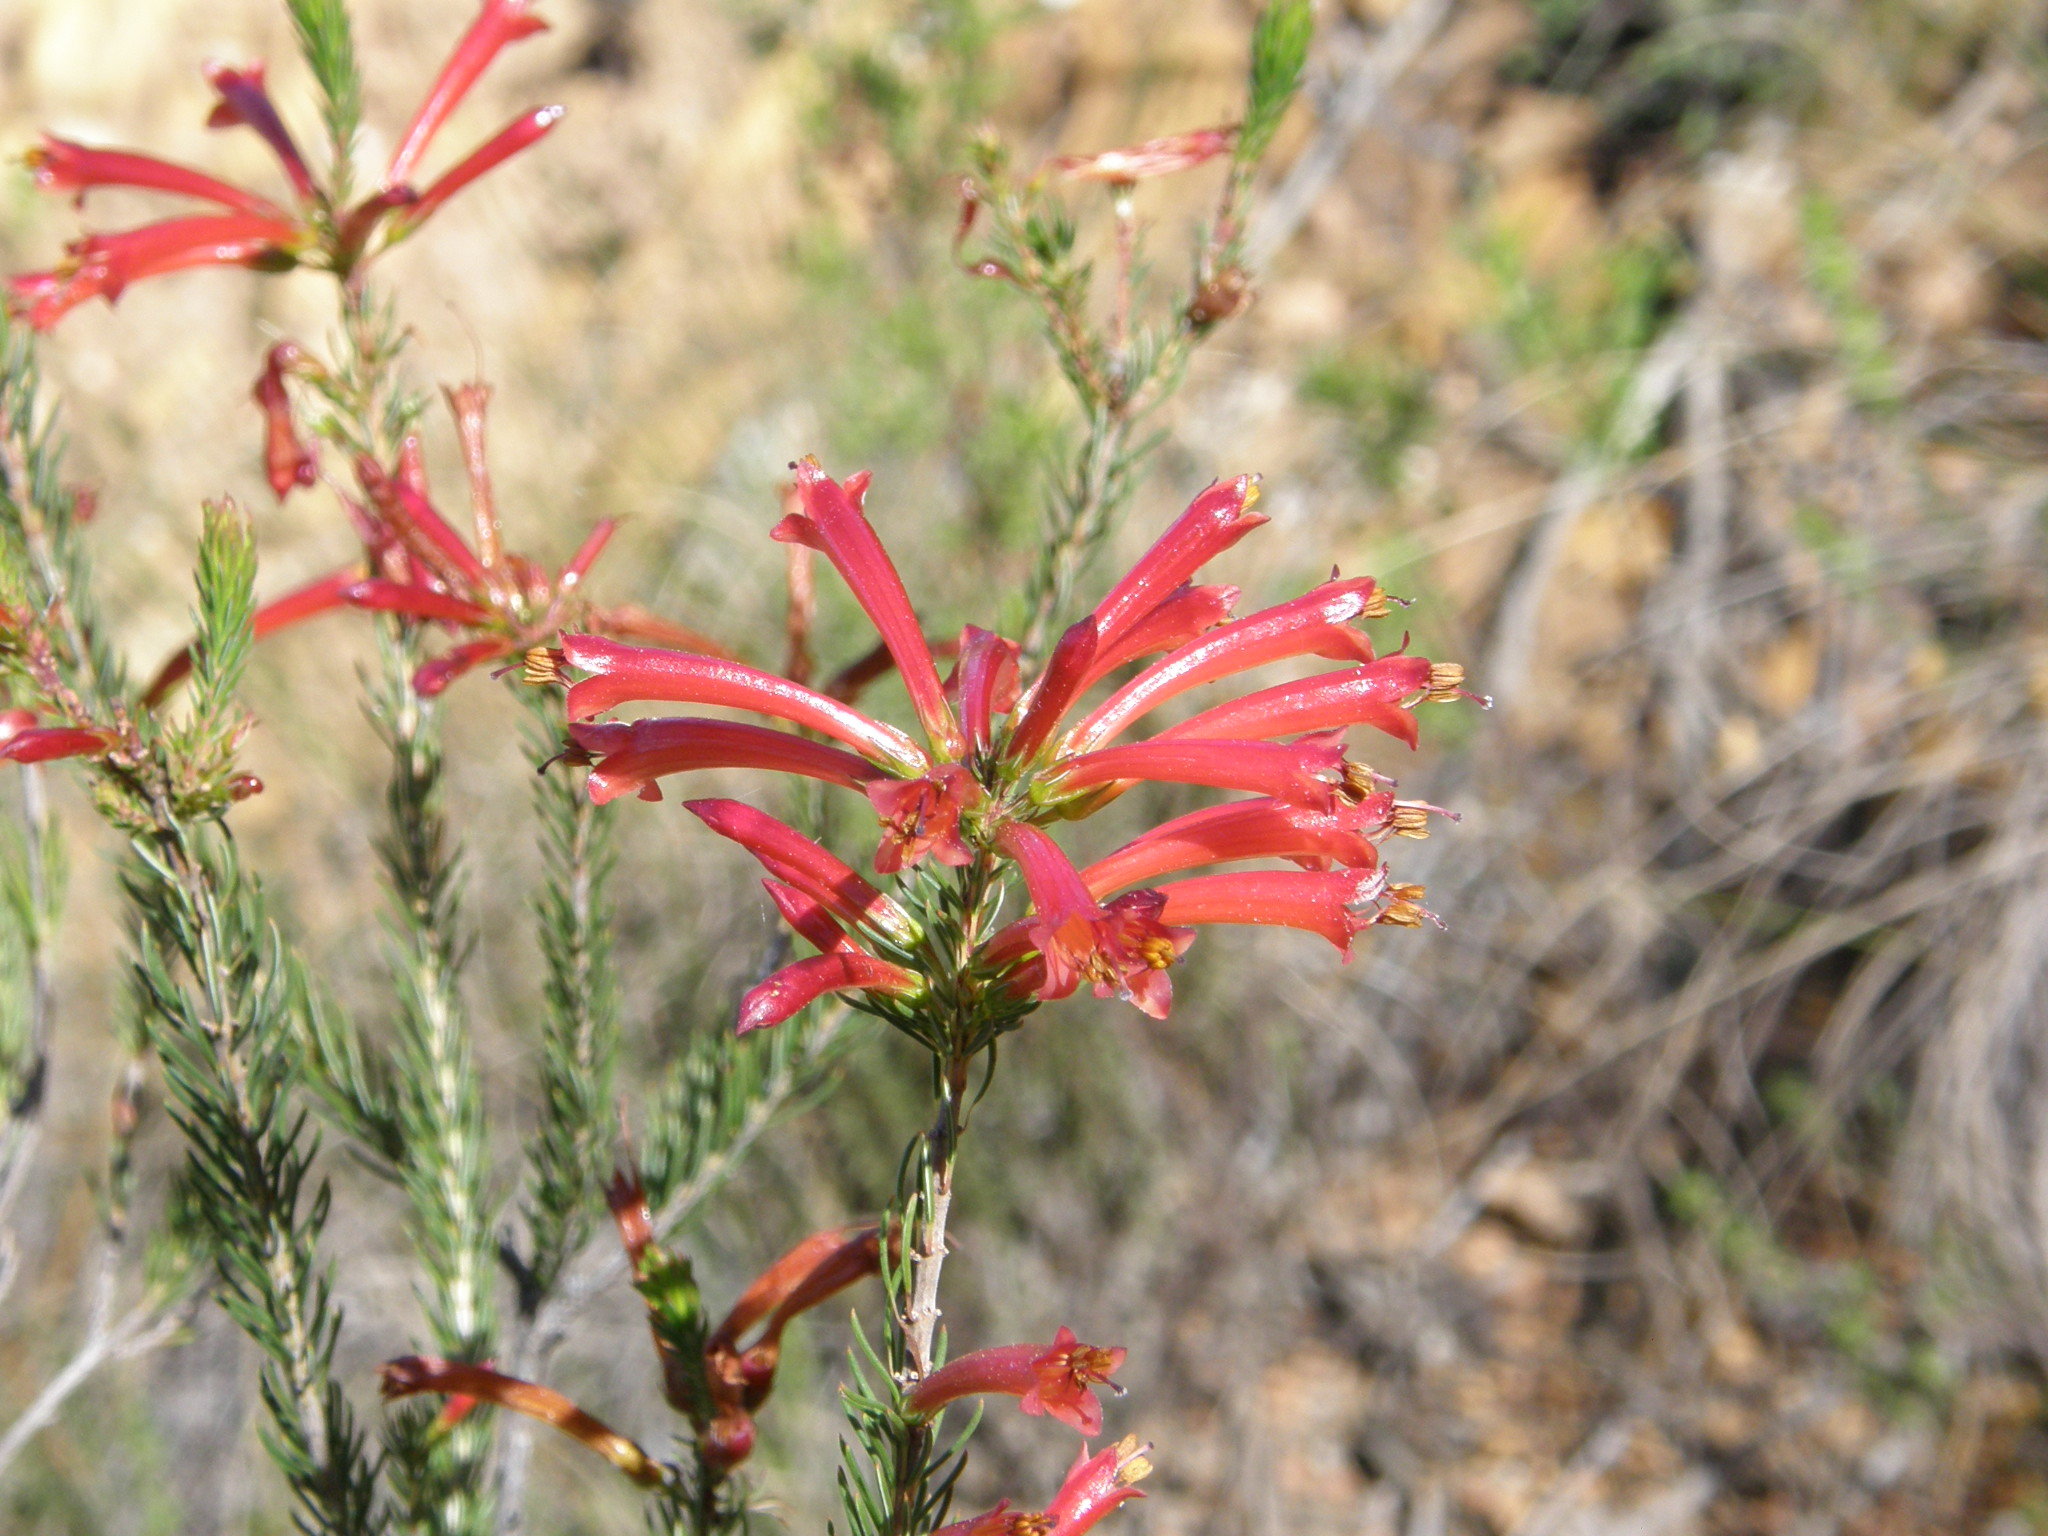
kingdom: Plantae
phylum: Tracheophyta
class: Magnoliopsida
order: Ericales
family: Ericaceae
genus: Erica
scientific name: Erica grandiflora
